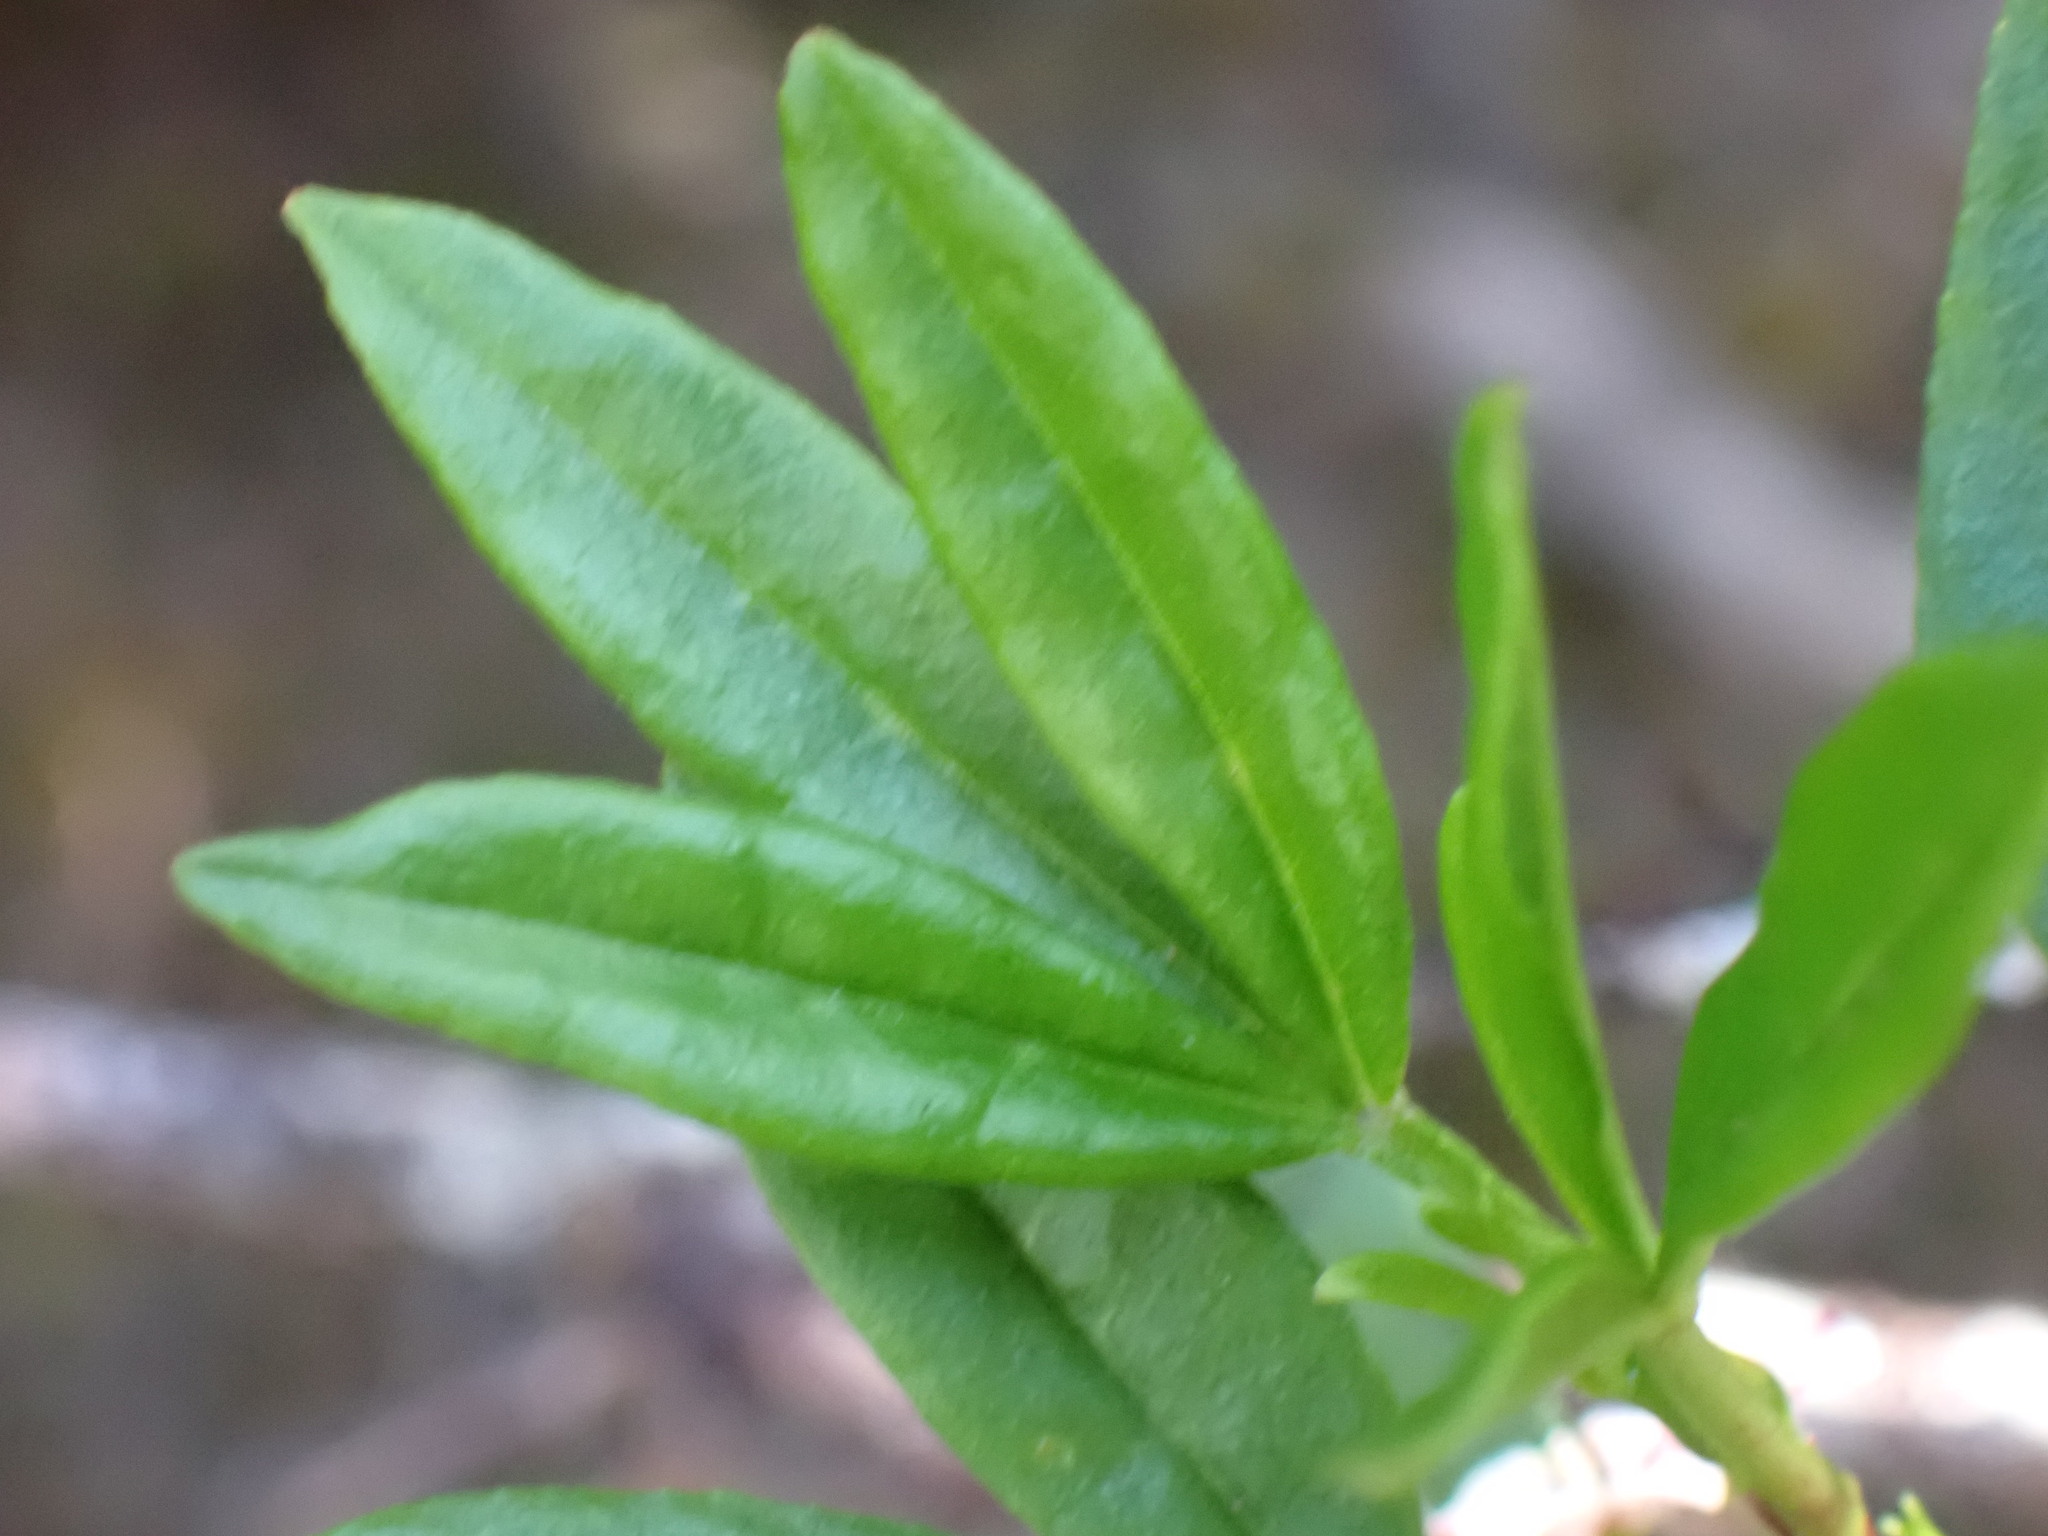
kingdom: Plantae
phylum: Tracheophyta
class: Magnoliopsida
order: Sapindales
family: Rutaceae
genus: Zieria
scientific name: Zieria alata
